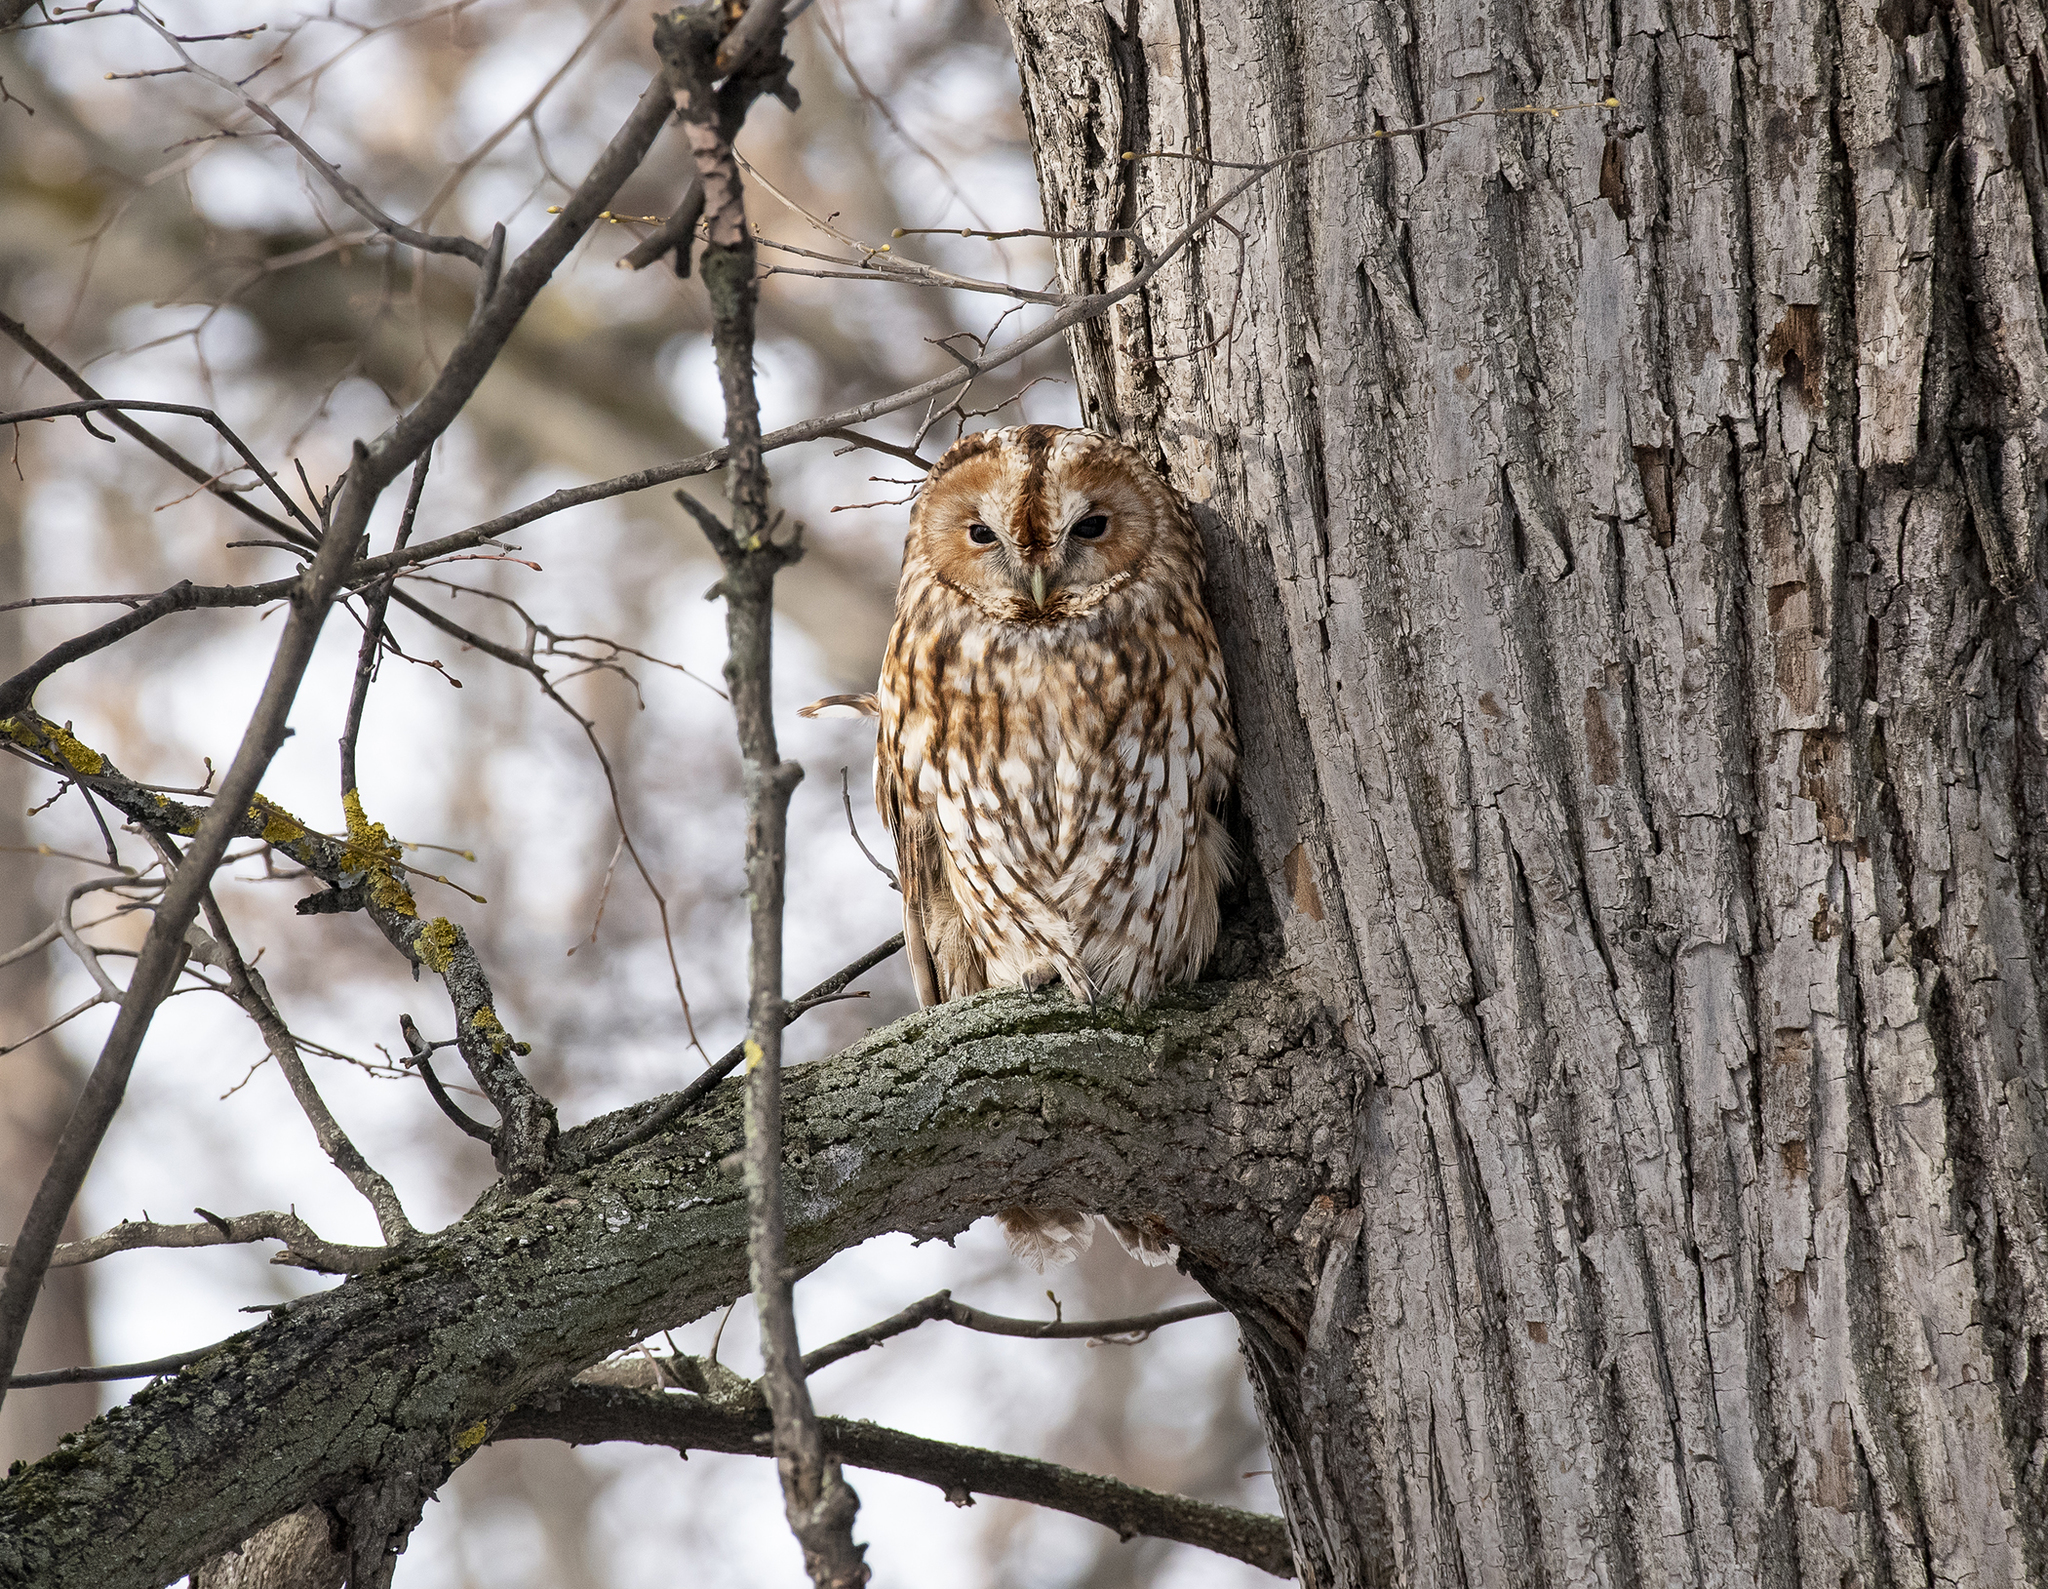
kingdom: Animalia
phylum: Chordata
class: Aves
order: Strigiformes
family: Strigidae
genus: Strix
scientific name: Strix aluco
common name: Tawny owl
